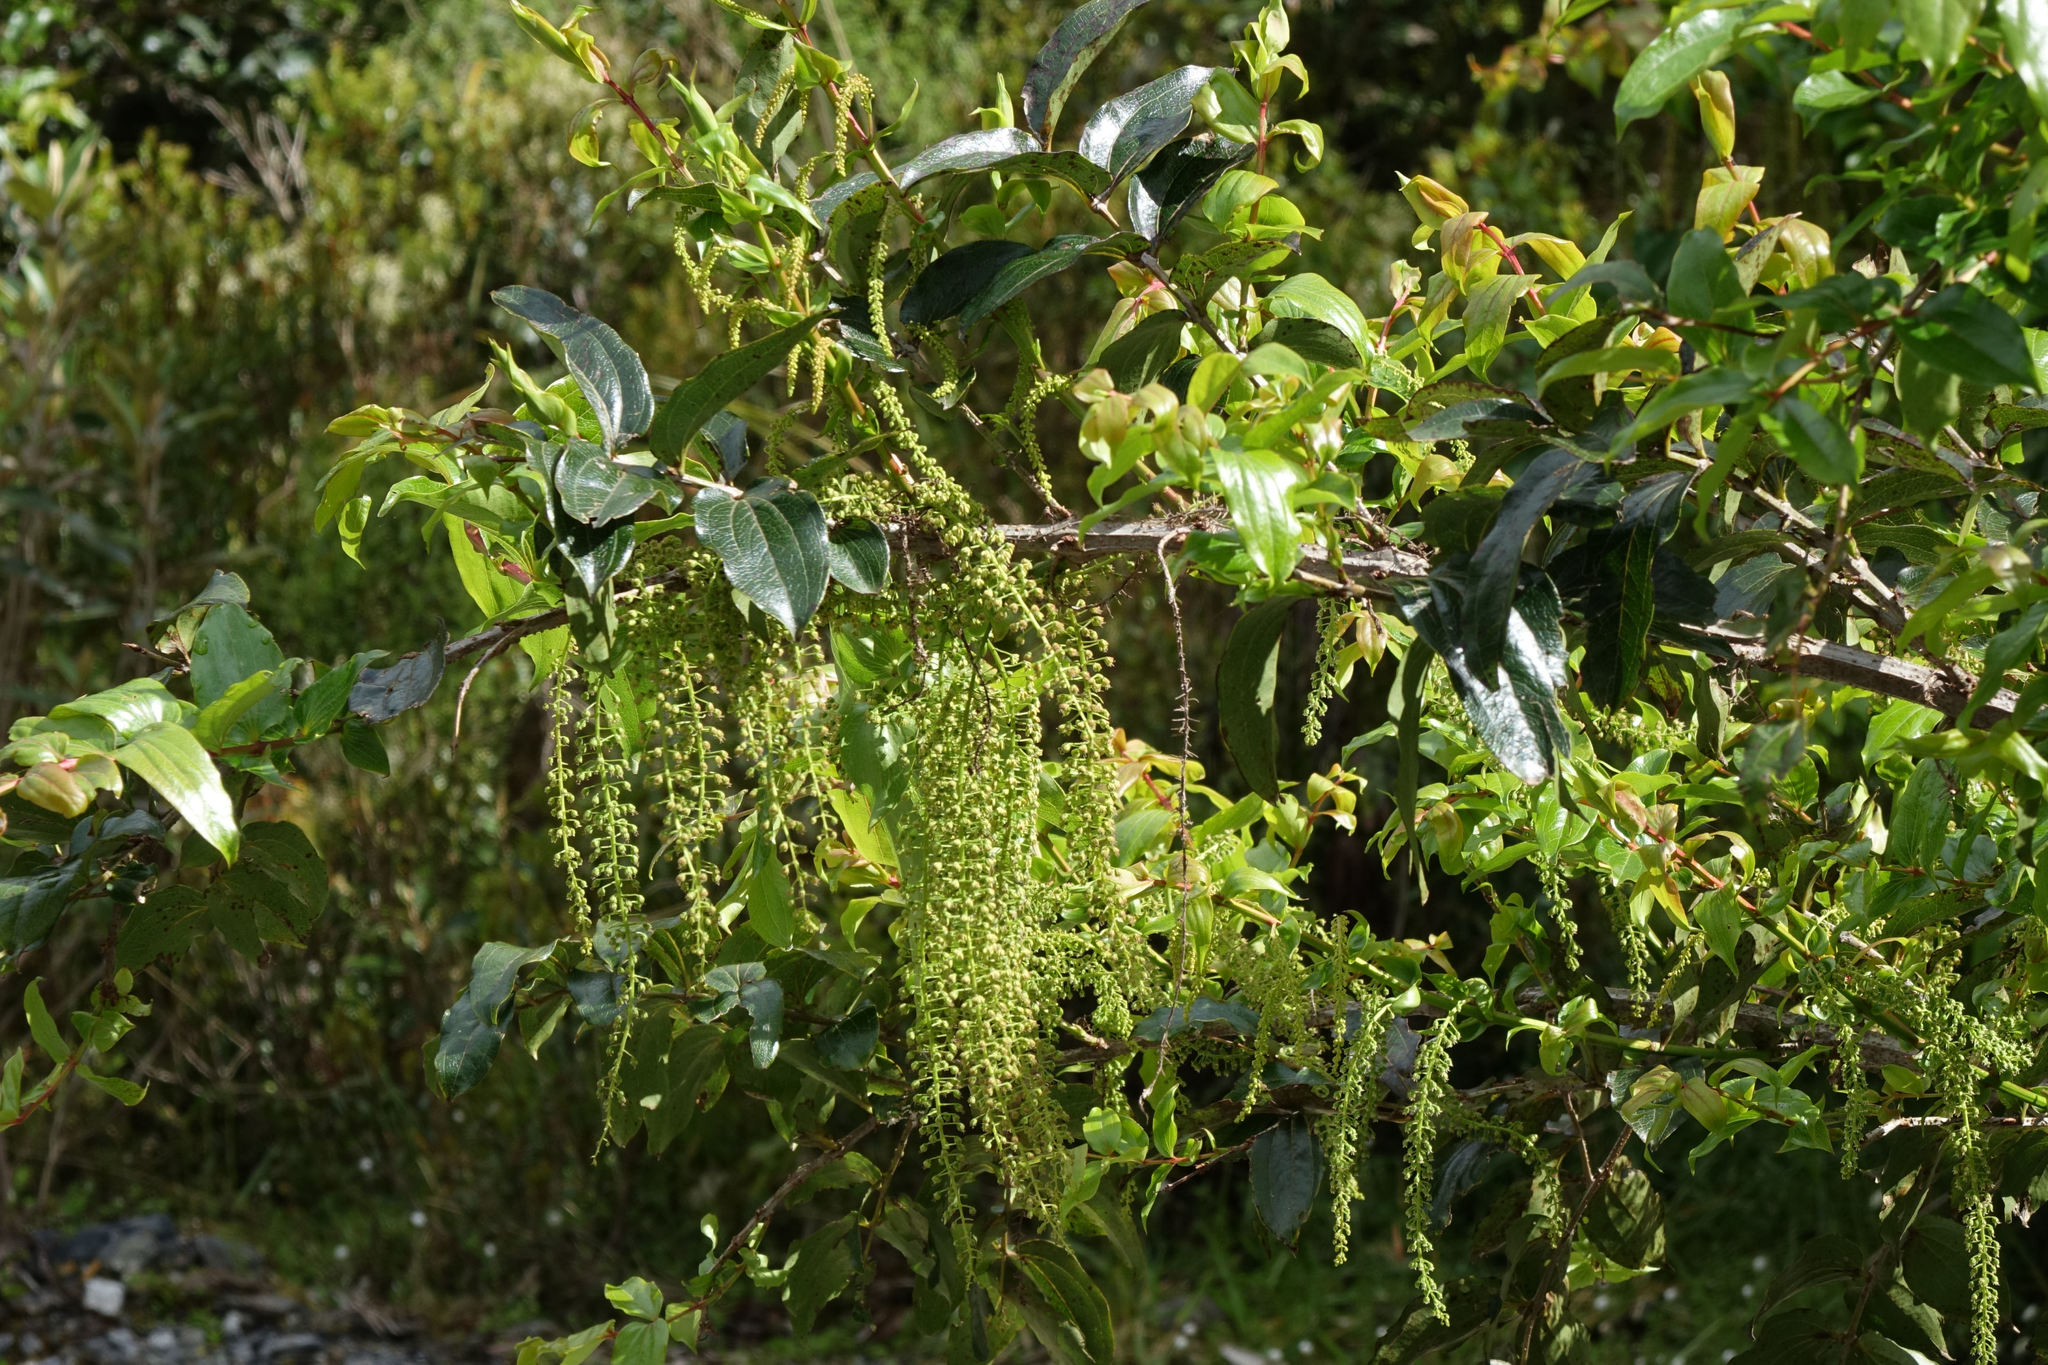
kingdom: Plantae
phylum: Tracheophyta
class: Magnoliopsida
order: Cucurbitales
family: Coriariaceae
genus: Coriaria
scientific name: Coriaria arborea
